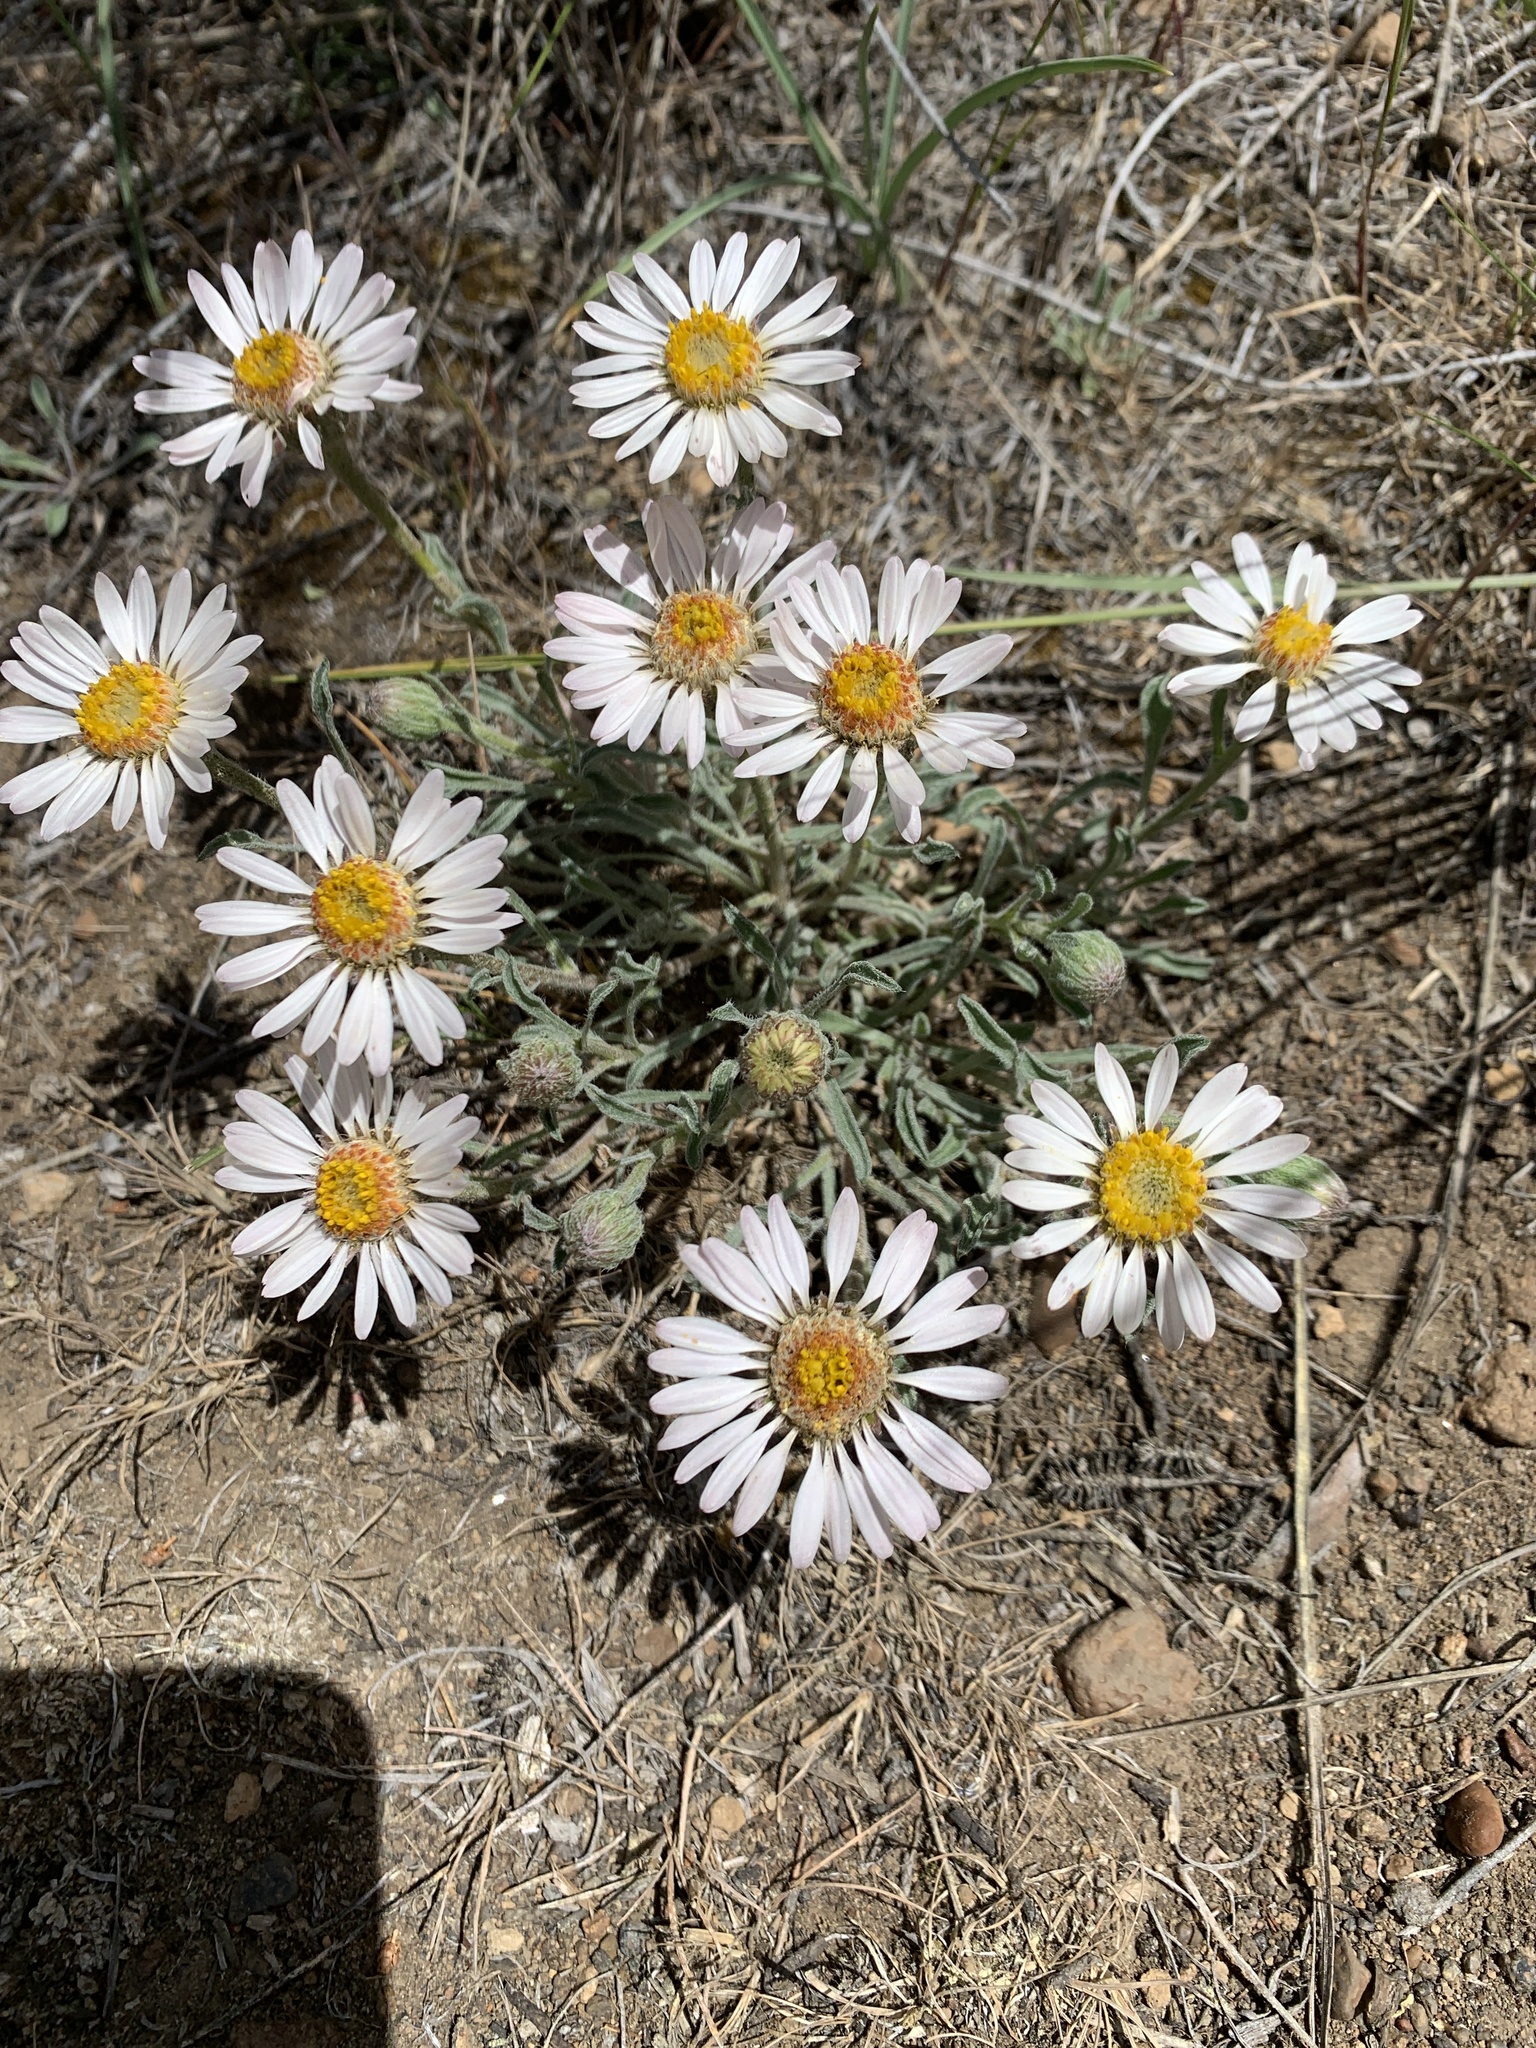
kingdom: Plantae
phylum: Tracheophyta
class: Magnoliopsida
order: Asterales
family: Asteraceae
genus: Townsendia
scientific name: Townsendia florifera
